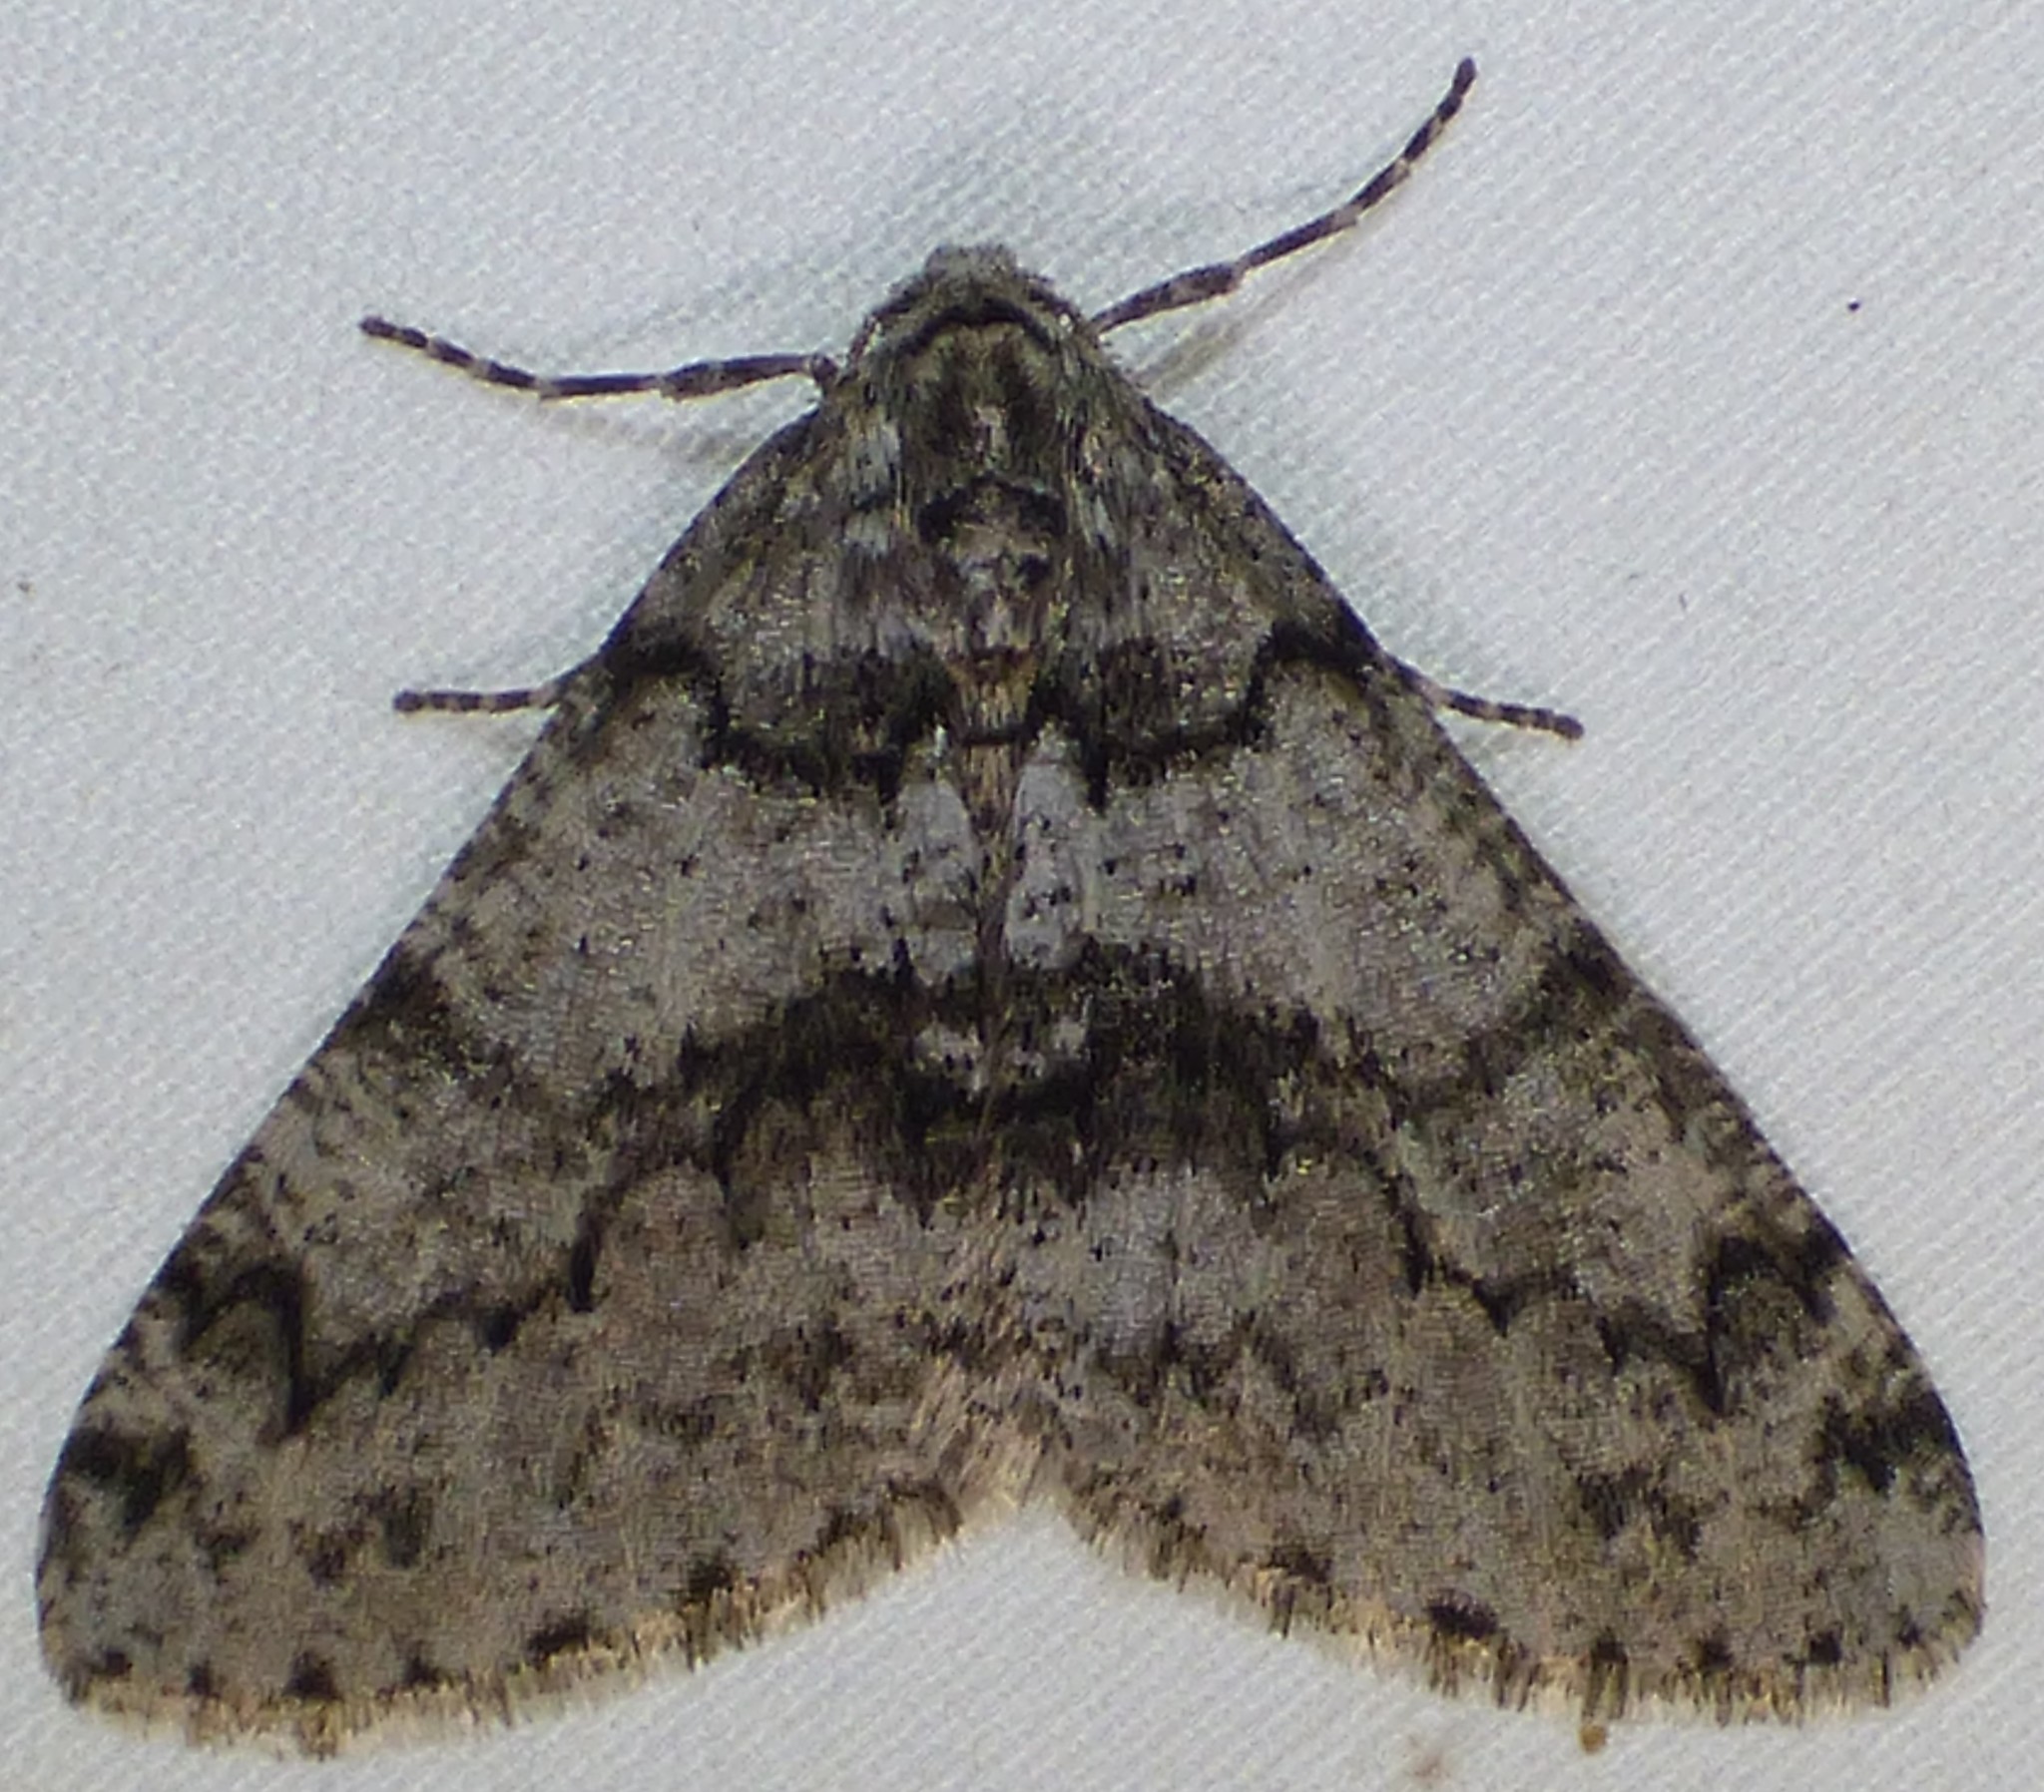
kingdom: Animalia
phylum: Arthropoda
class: Insecta
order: Lepidoptera
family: Geometridae
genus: Phigalia
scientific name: Phigalia denticulata
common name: Toothed phigalia
